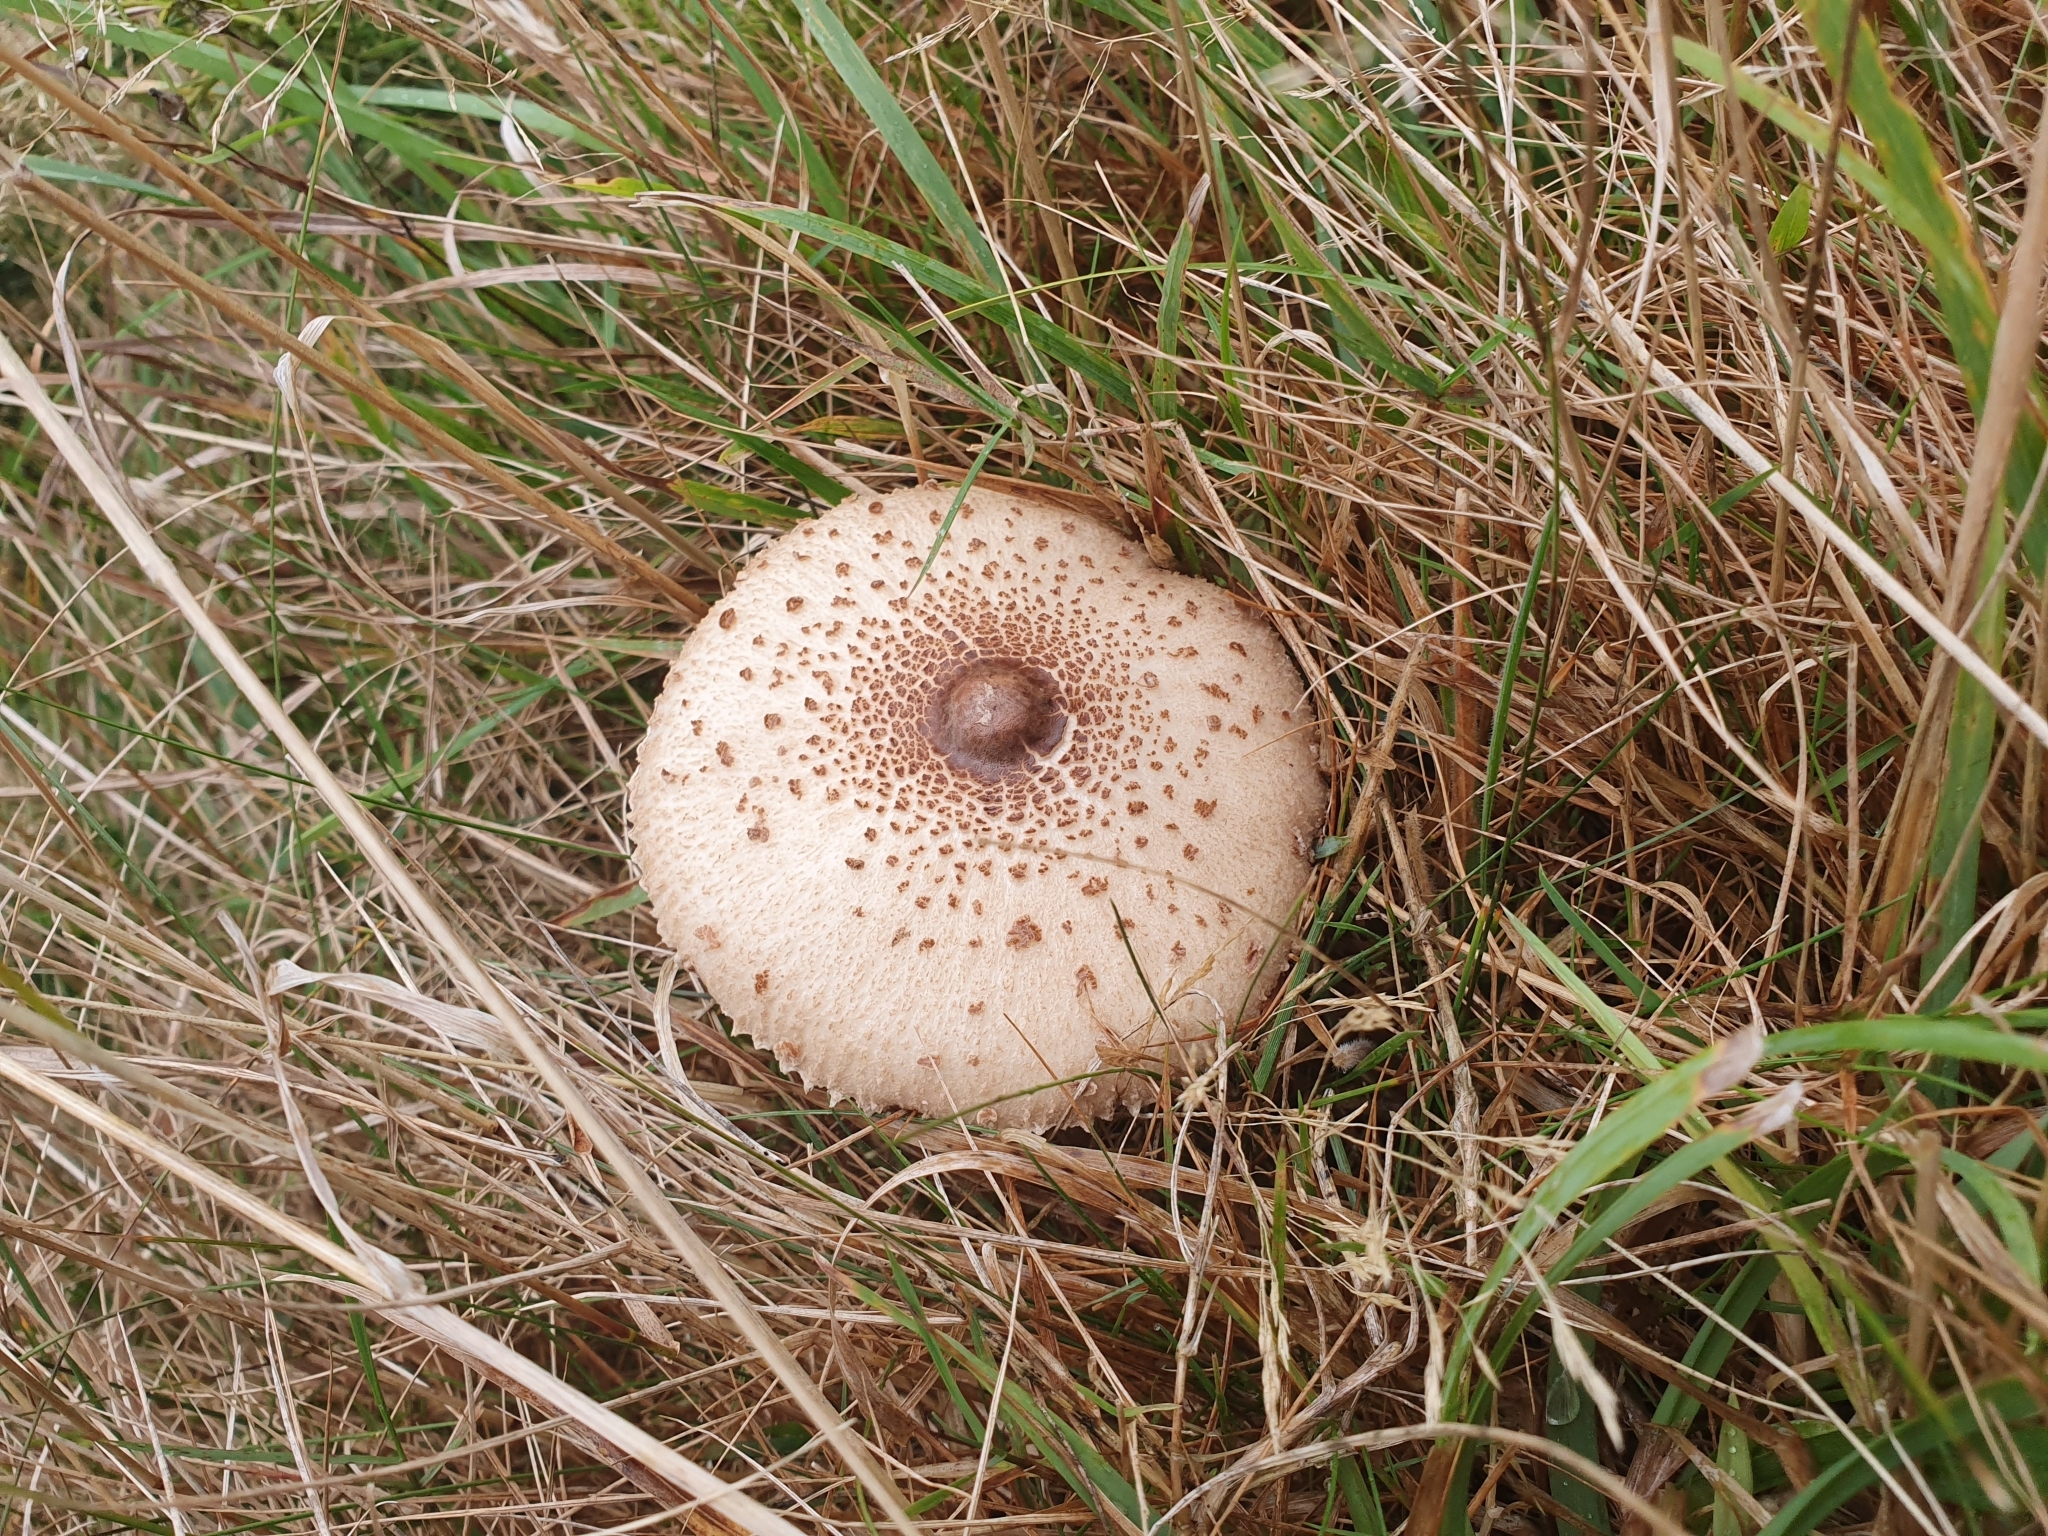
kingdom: Fungi
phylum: Basidiomycota
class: Agaricomycetes
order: Agaricales
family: Agaricaceae
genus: Macrolepiota
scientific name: Macrolepiota clelandii
